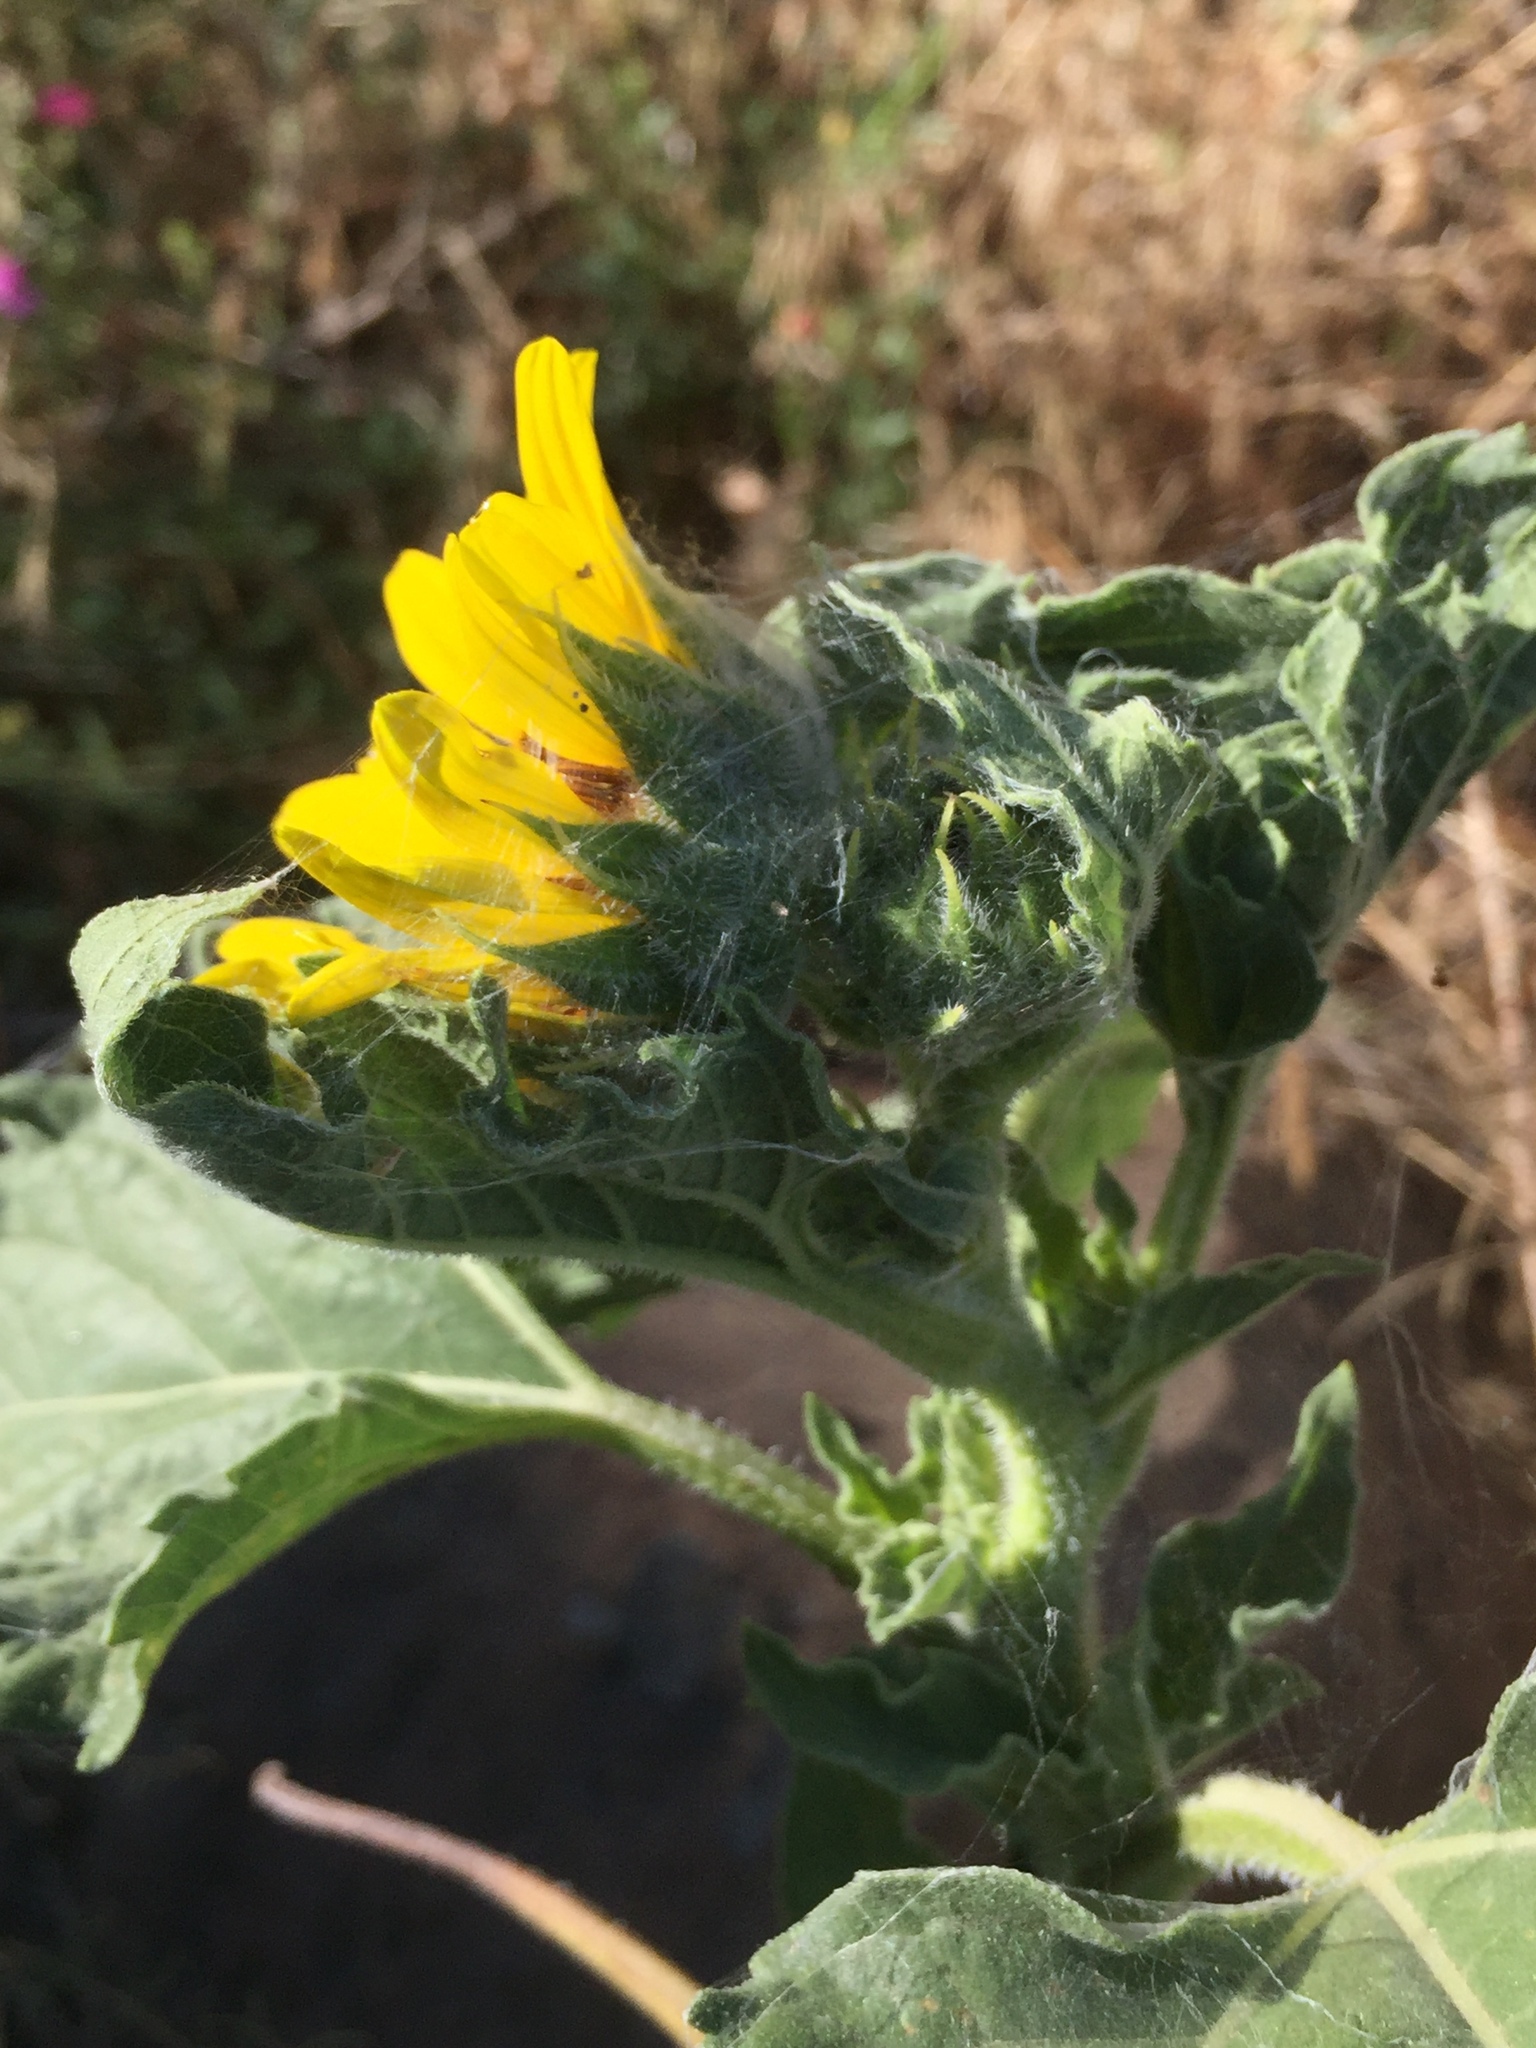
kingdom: Plantae
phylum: Tracheophyta
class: Magnoliopsida
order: Asterales
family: Asteraceae
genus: Helianthus
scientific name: Helianthus annuus
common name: Sunflower
